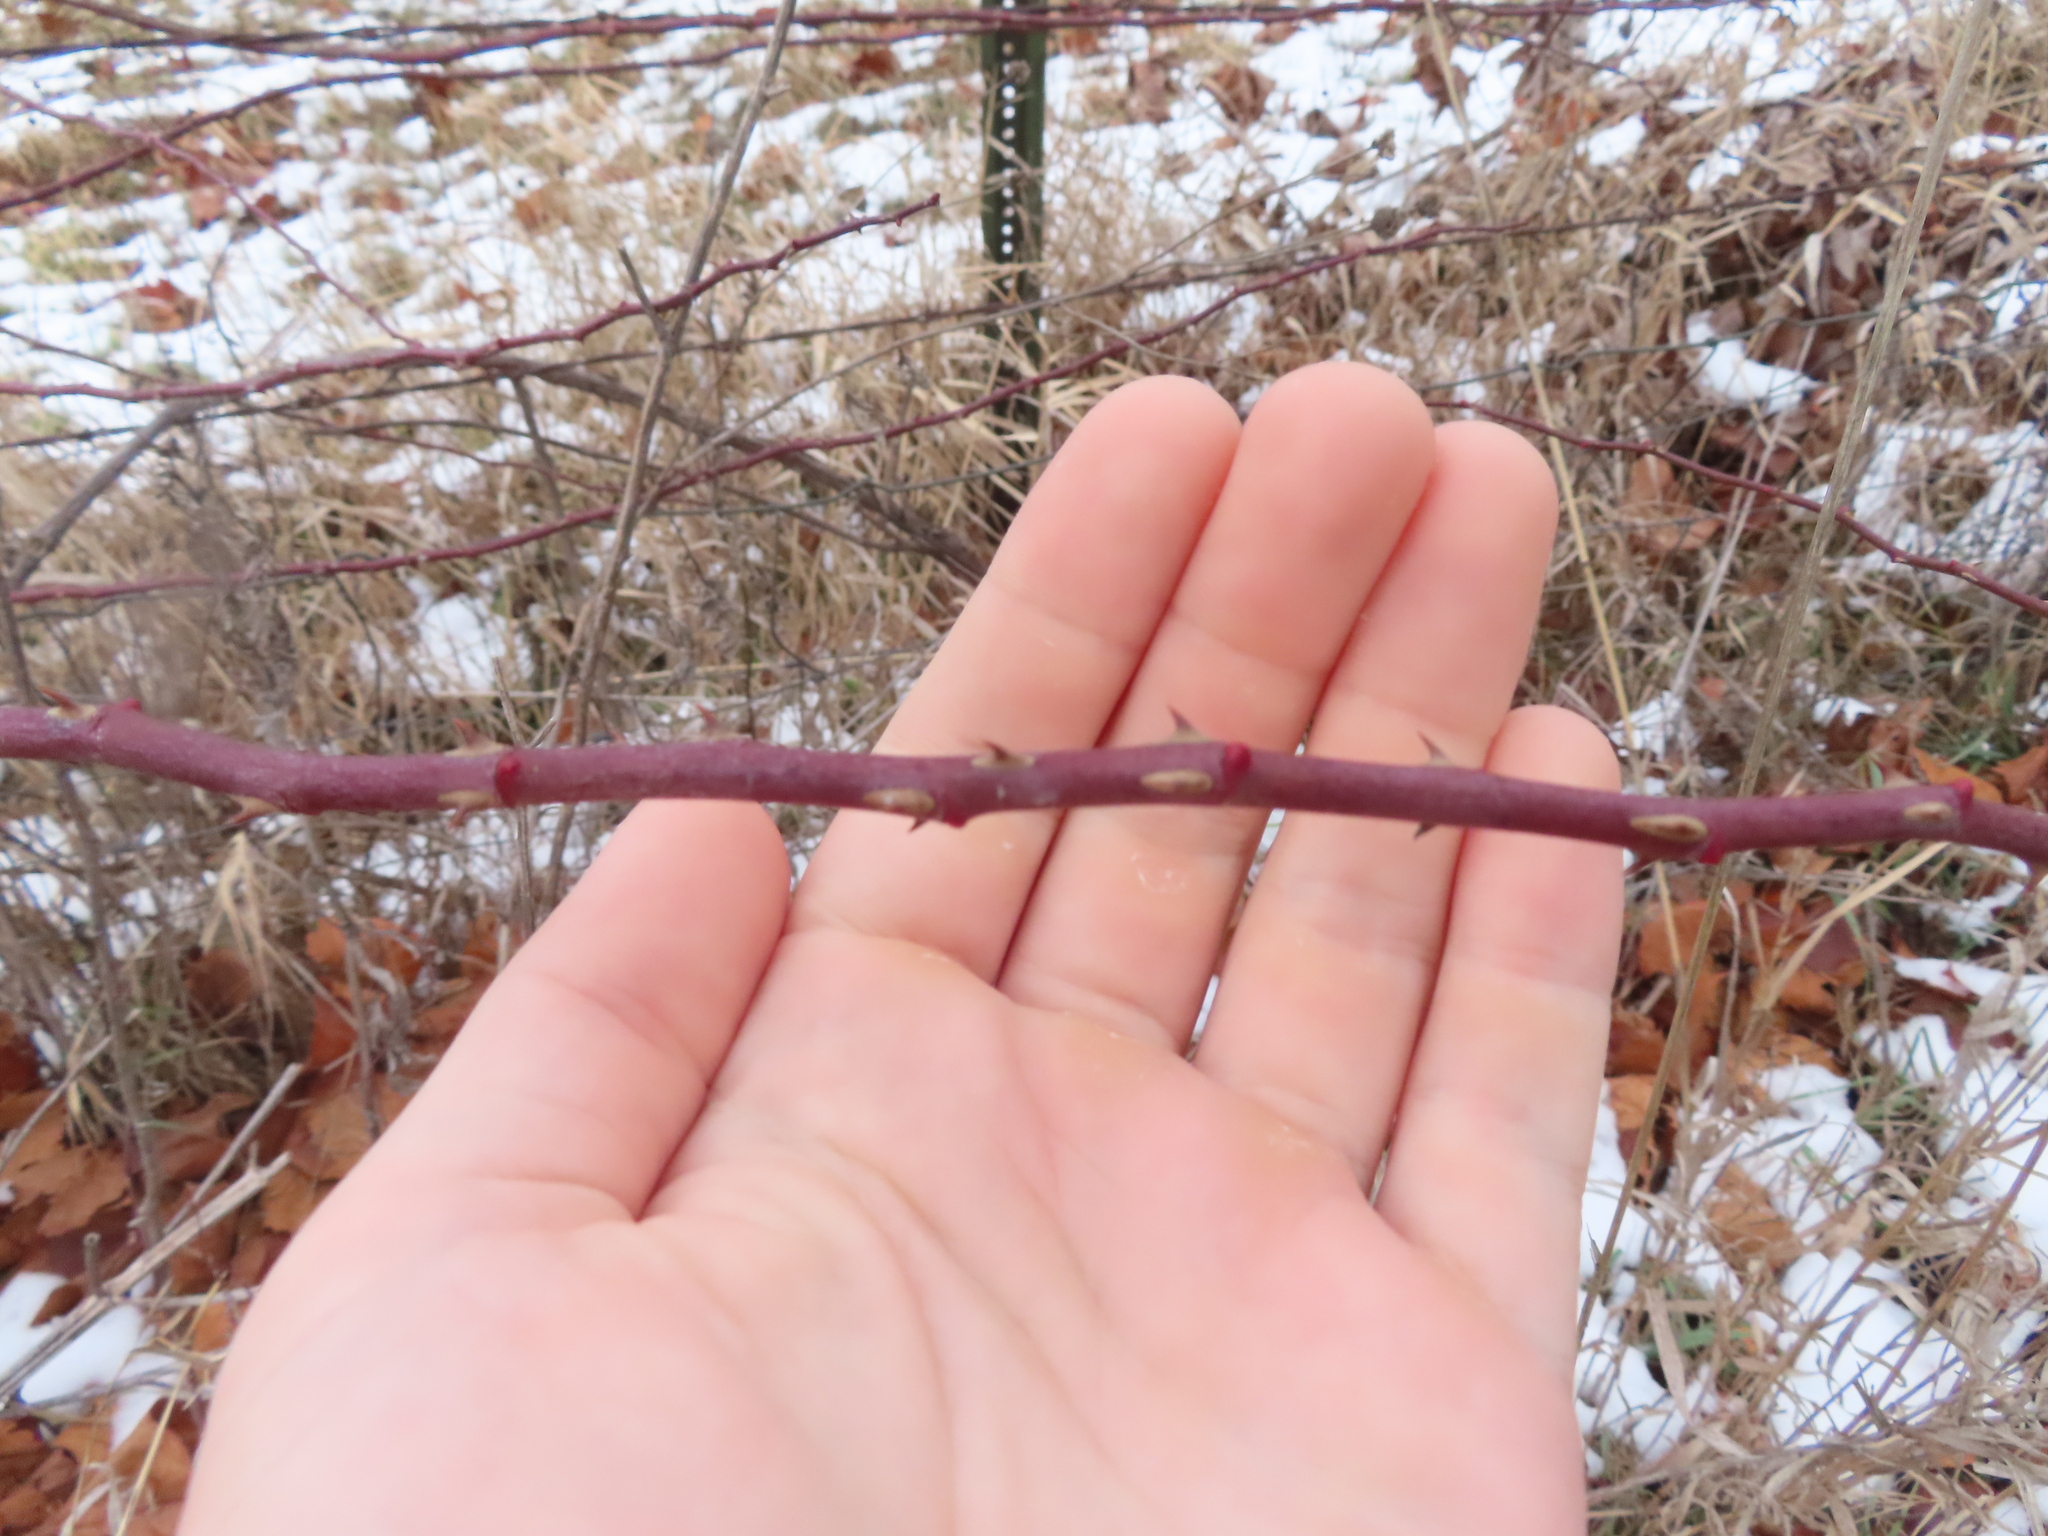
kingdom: Plantae
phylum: Tracheophyta
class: Magnoliopsida
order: Rosales
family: Rosaceae
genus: Rubus
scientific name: Rubus occidentalis
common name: Black raspberry
